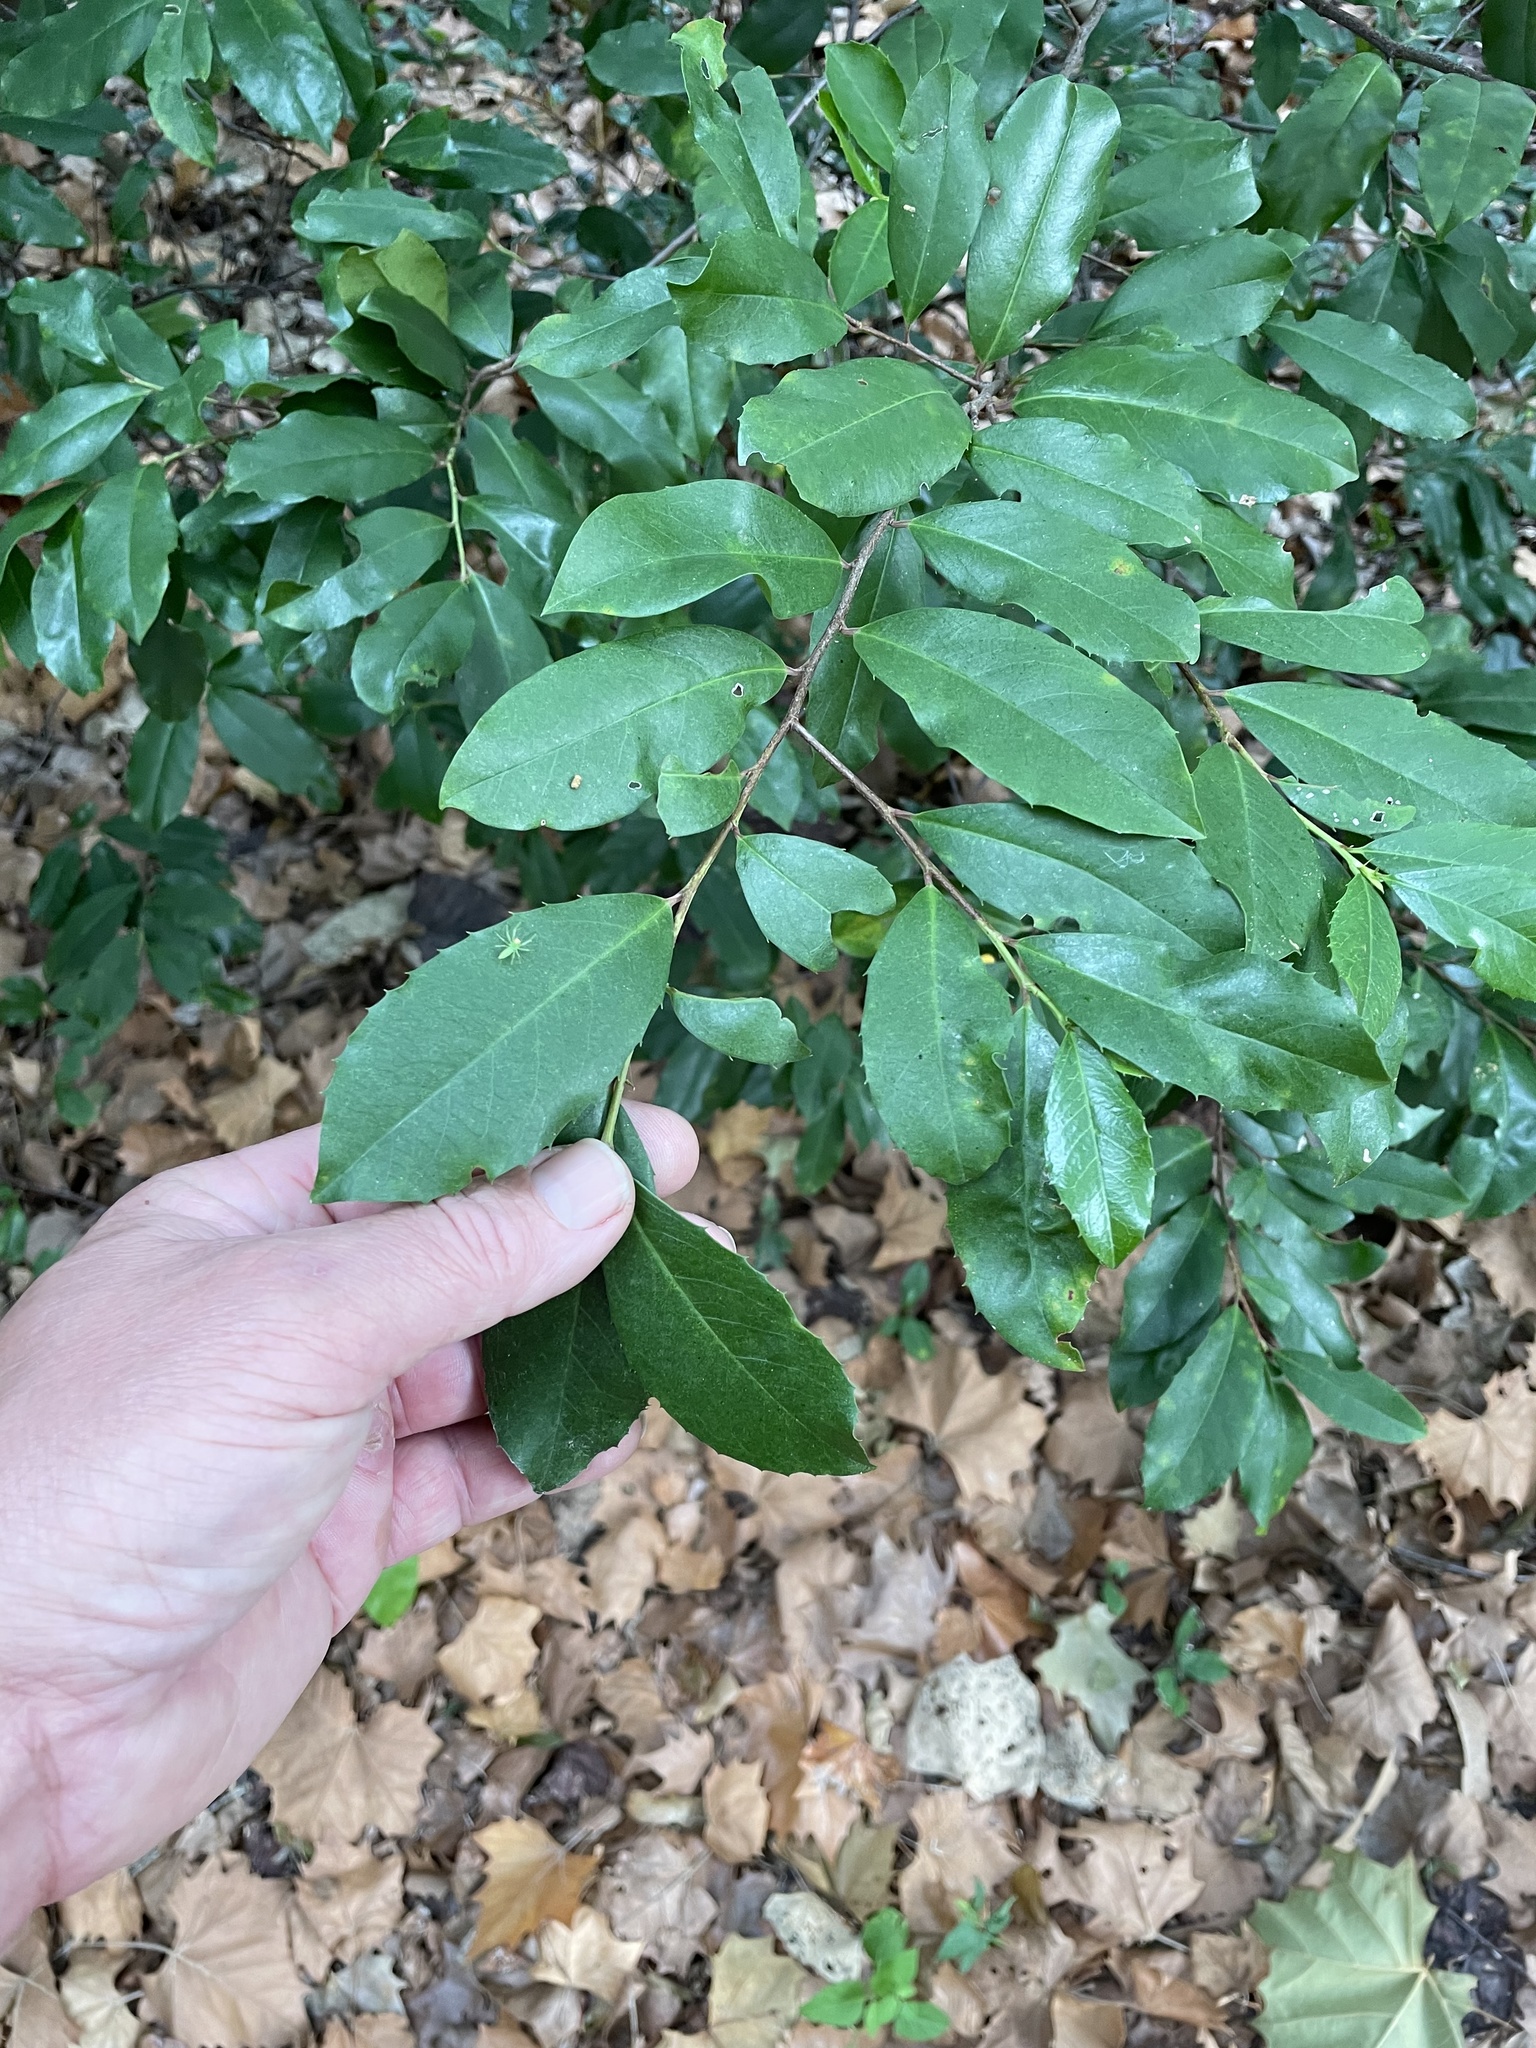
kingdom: Plantae
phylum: Tracheophyta
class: Magnoliopsida
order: Rosales
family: Rosaceae
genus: Prunus
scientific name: Prunus caroliniana
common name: Carolina laurel cherry
